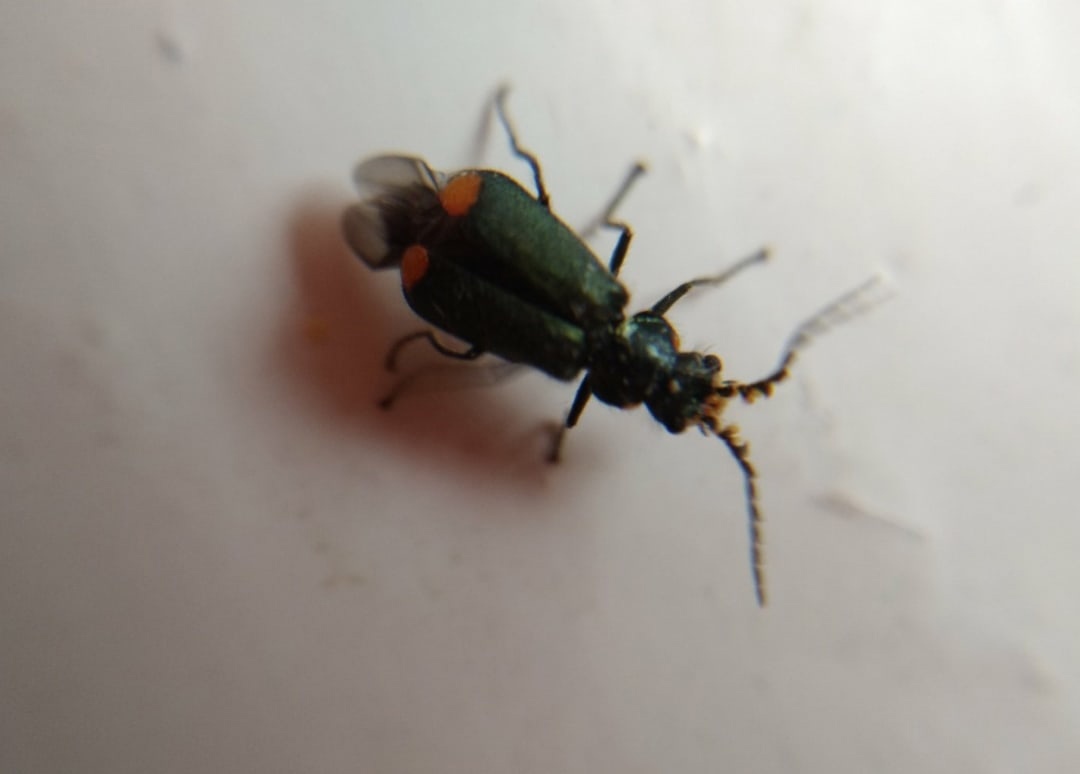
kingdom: Animalia
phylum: Arthropoda
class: Insecta
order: Coleoptera
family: Melyridae
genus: Malachius
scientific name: Malachius bipustulatus
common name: Malachite beetle
